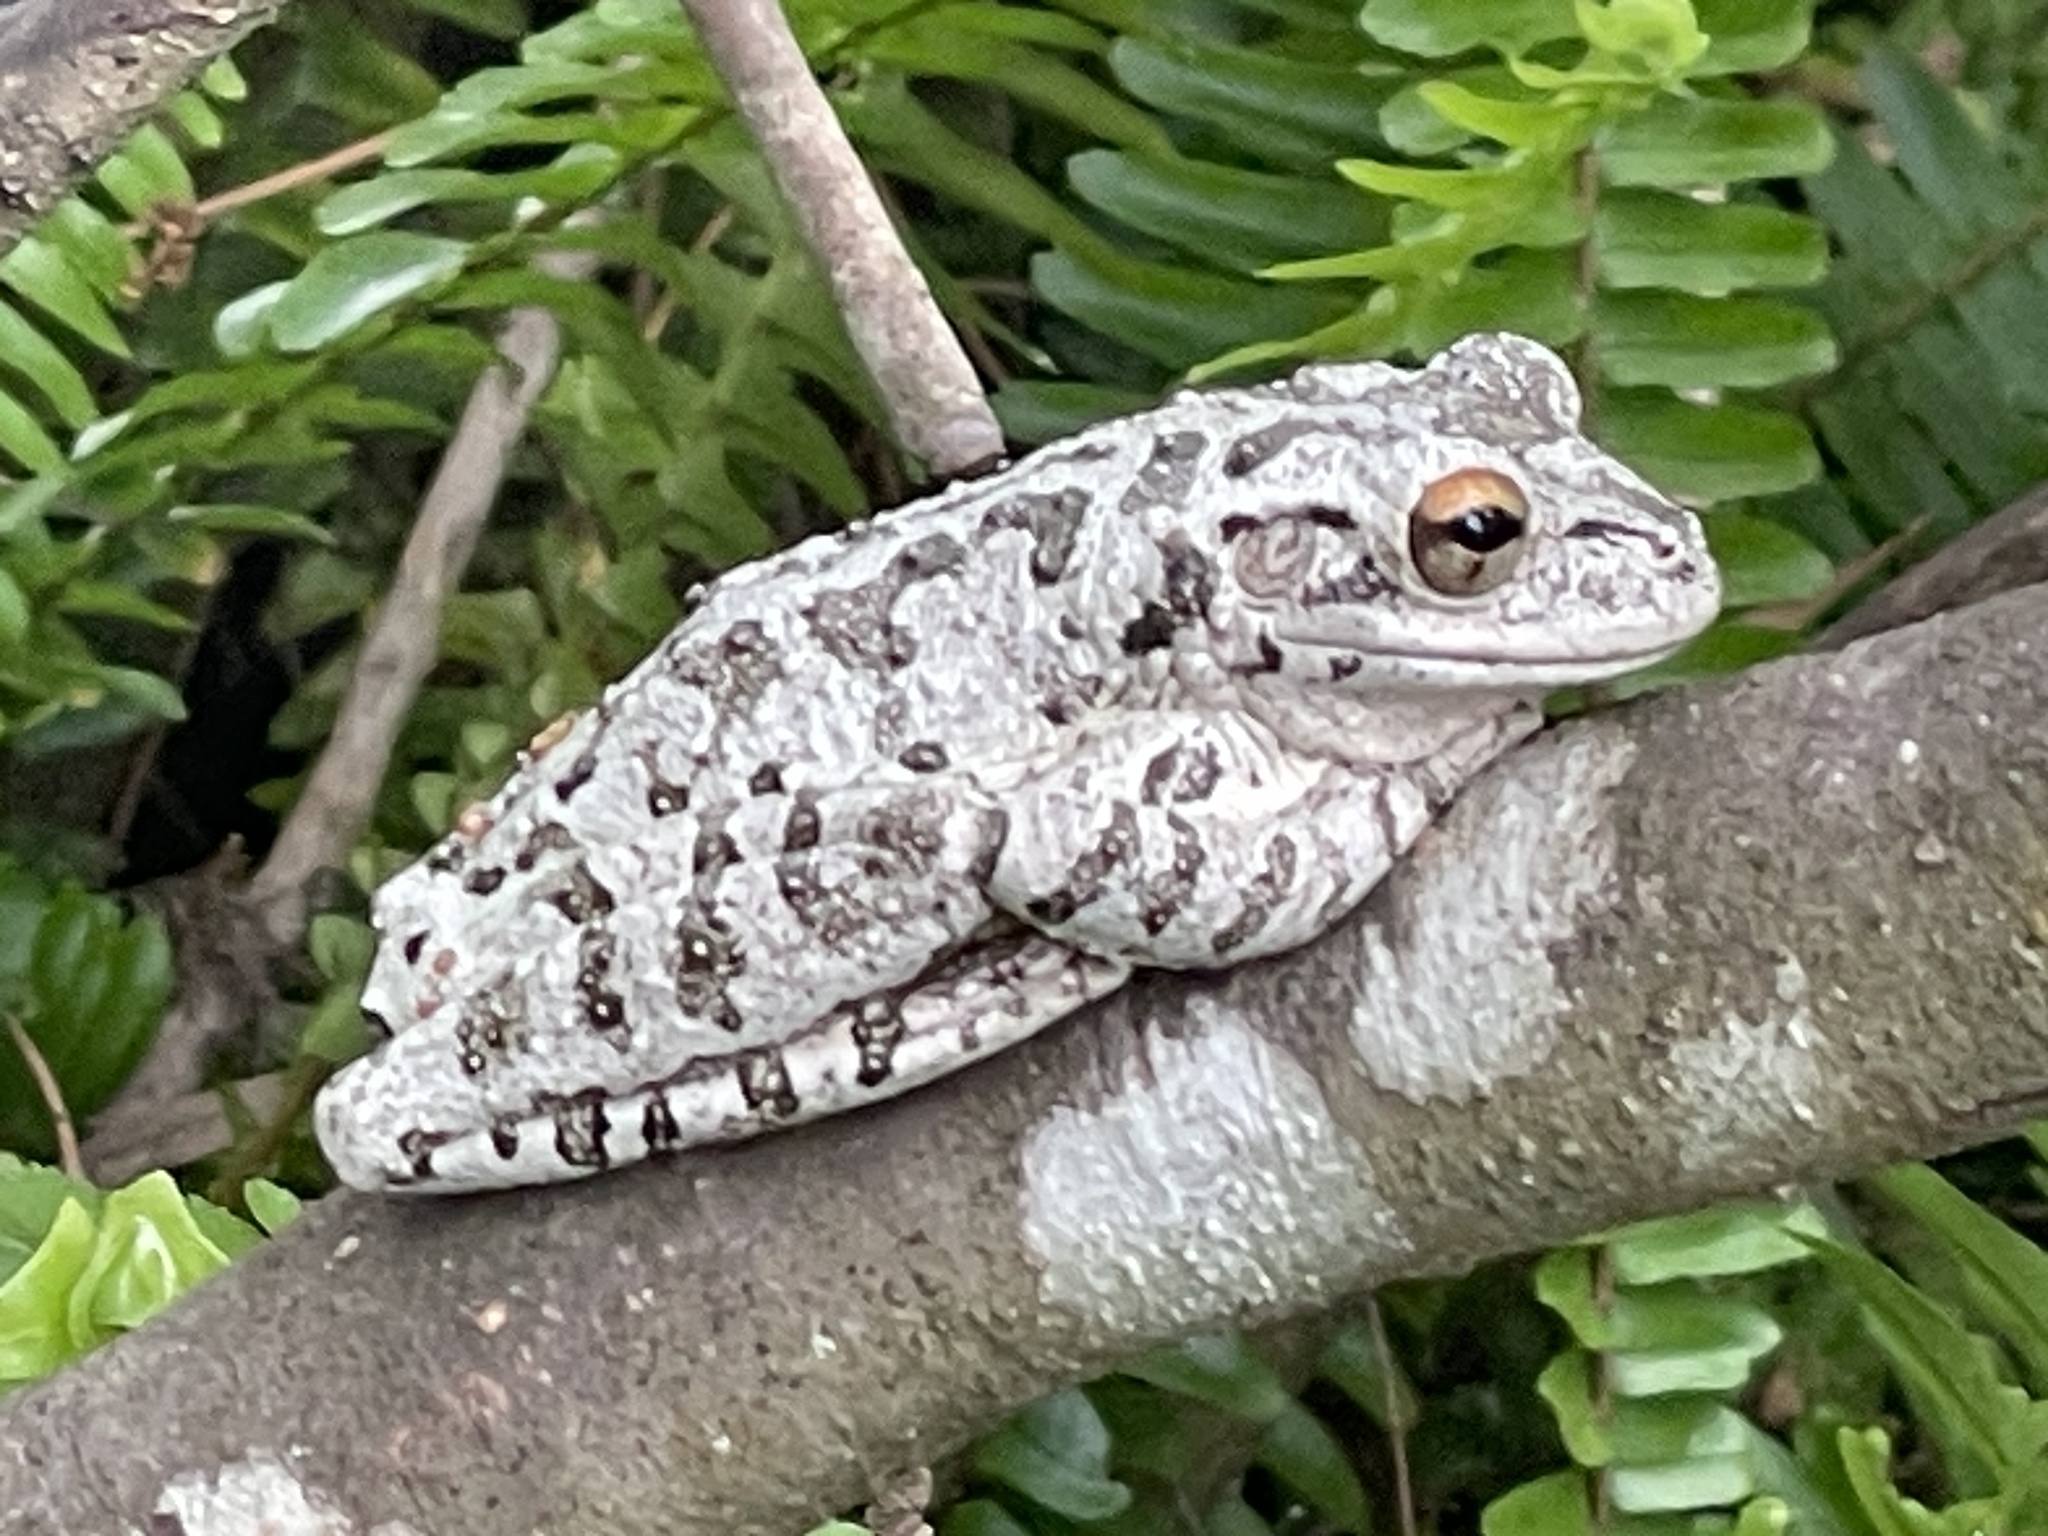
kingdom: Animalia
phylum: Chordata
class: Amphibia
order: Anura
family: Hylidae
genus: Osteopilus
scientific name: Osteopilus septentrionalis
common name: Cuban treefrog
